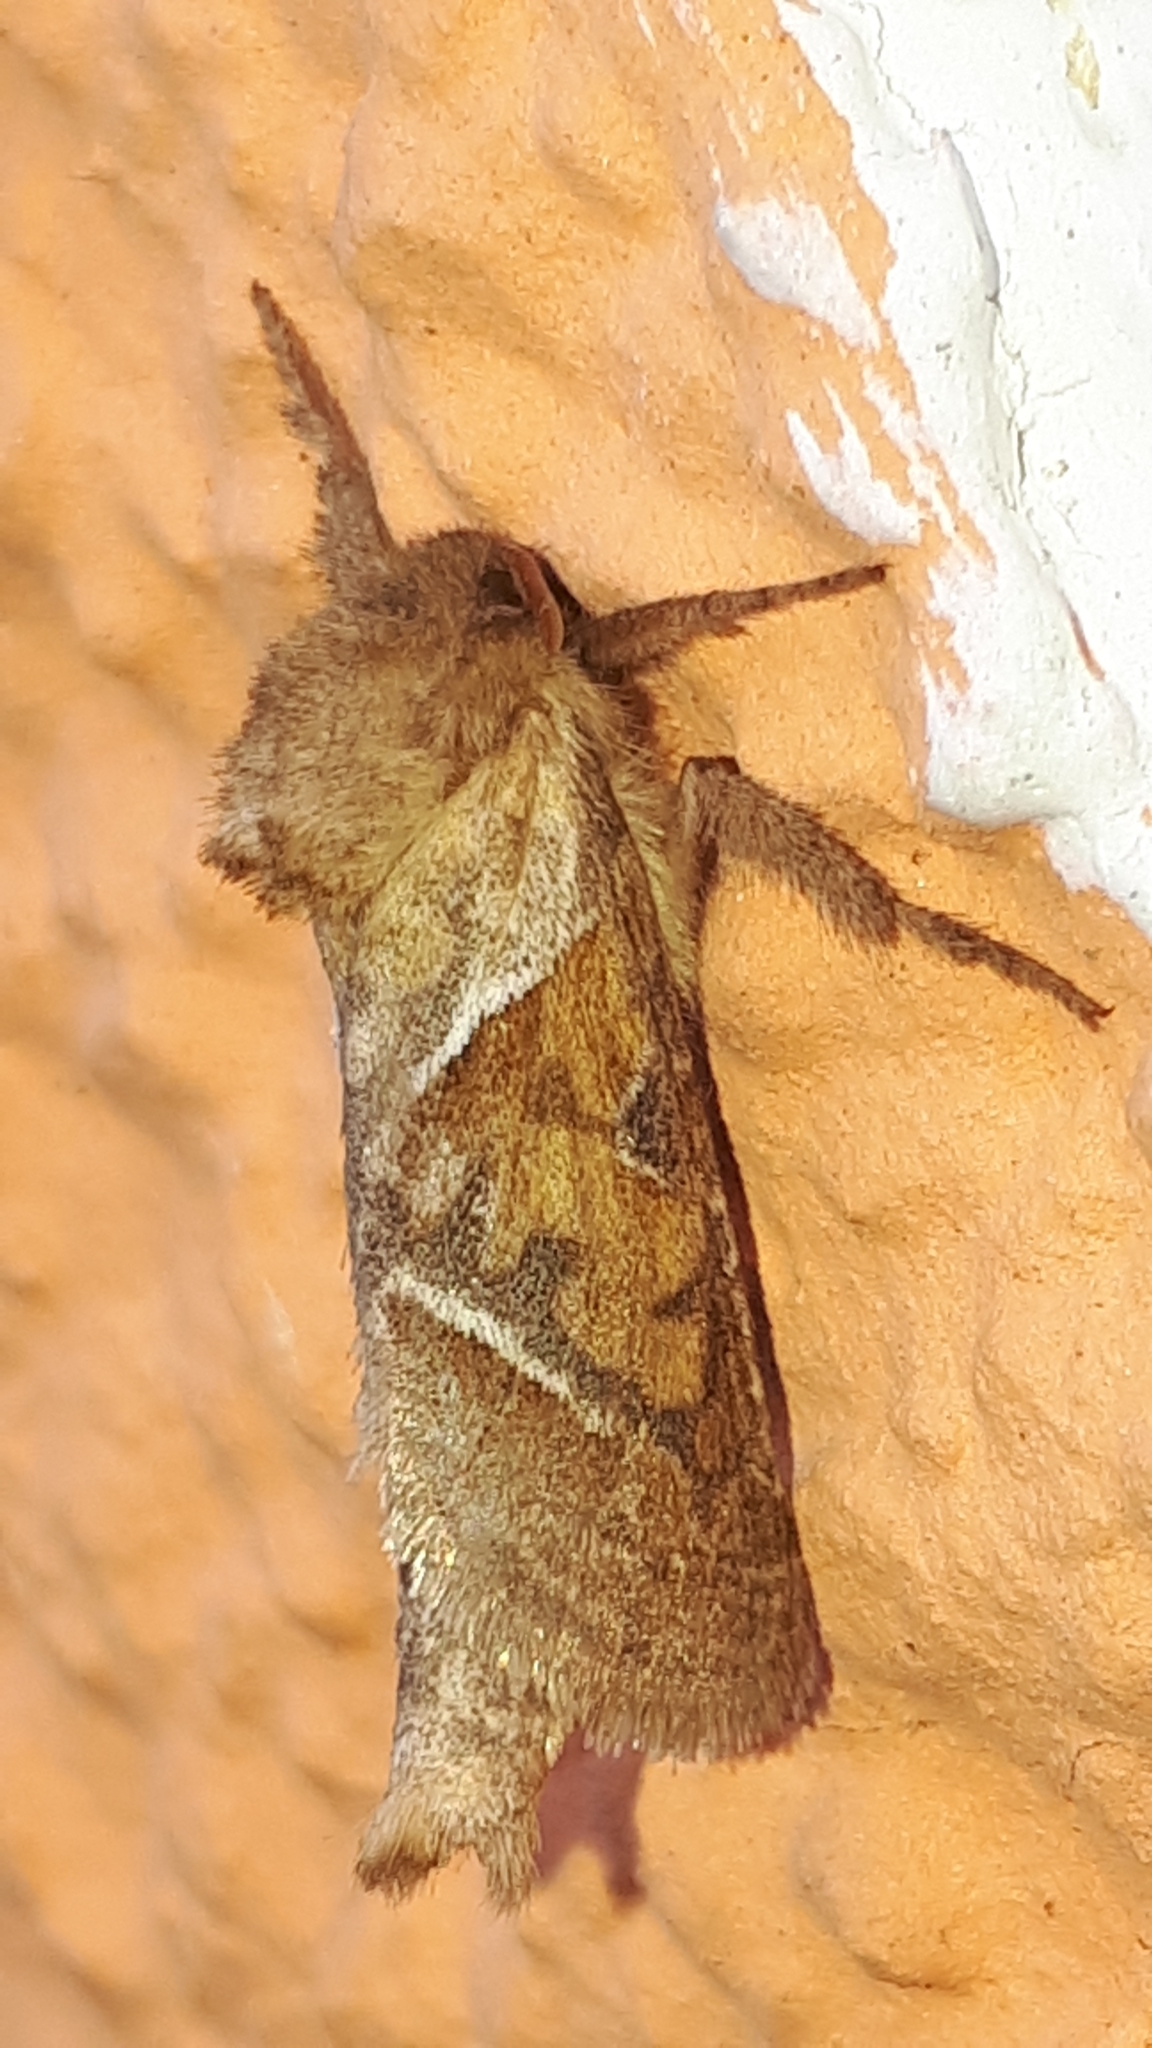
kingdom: Animalia
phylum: Arthropoda
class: Insecta
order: Lepidoptera
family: Hepialidae
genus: Triodia
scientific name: Triodia sylvina
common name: Orange swift
